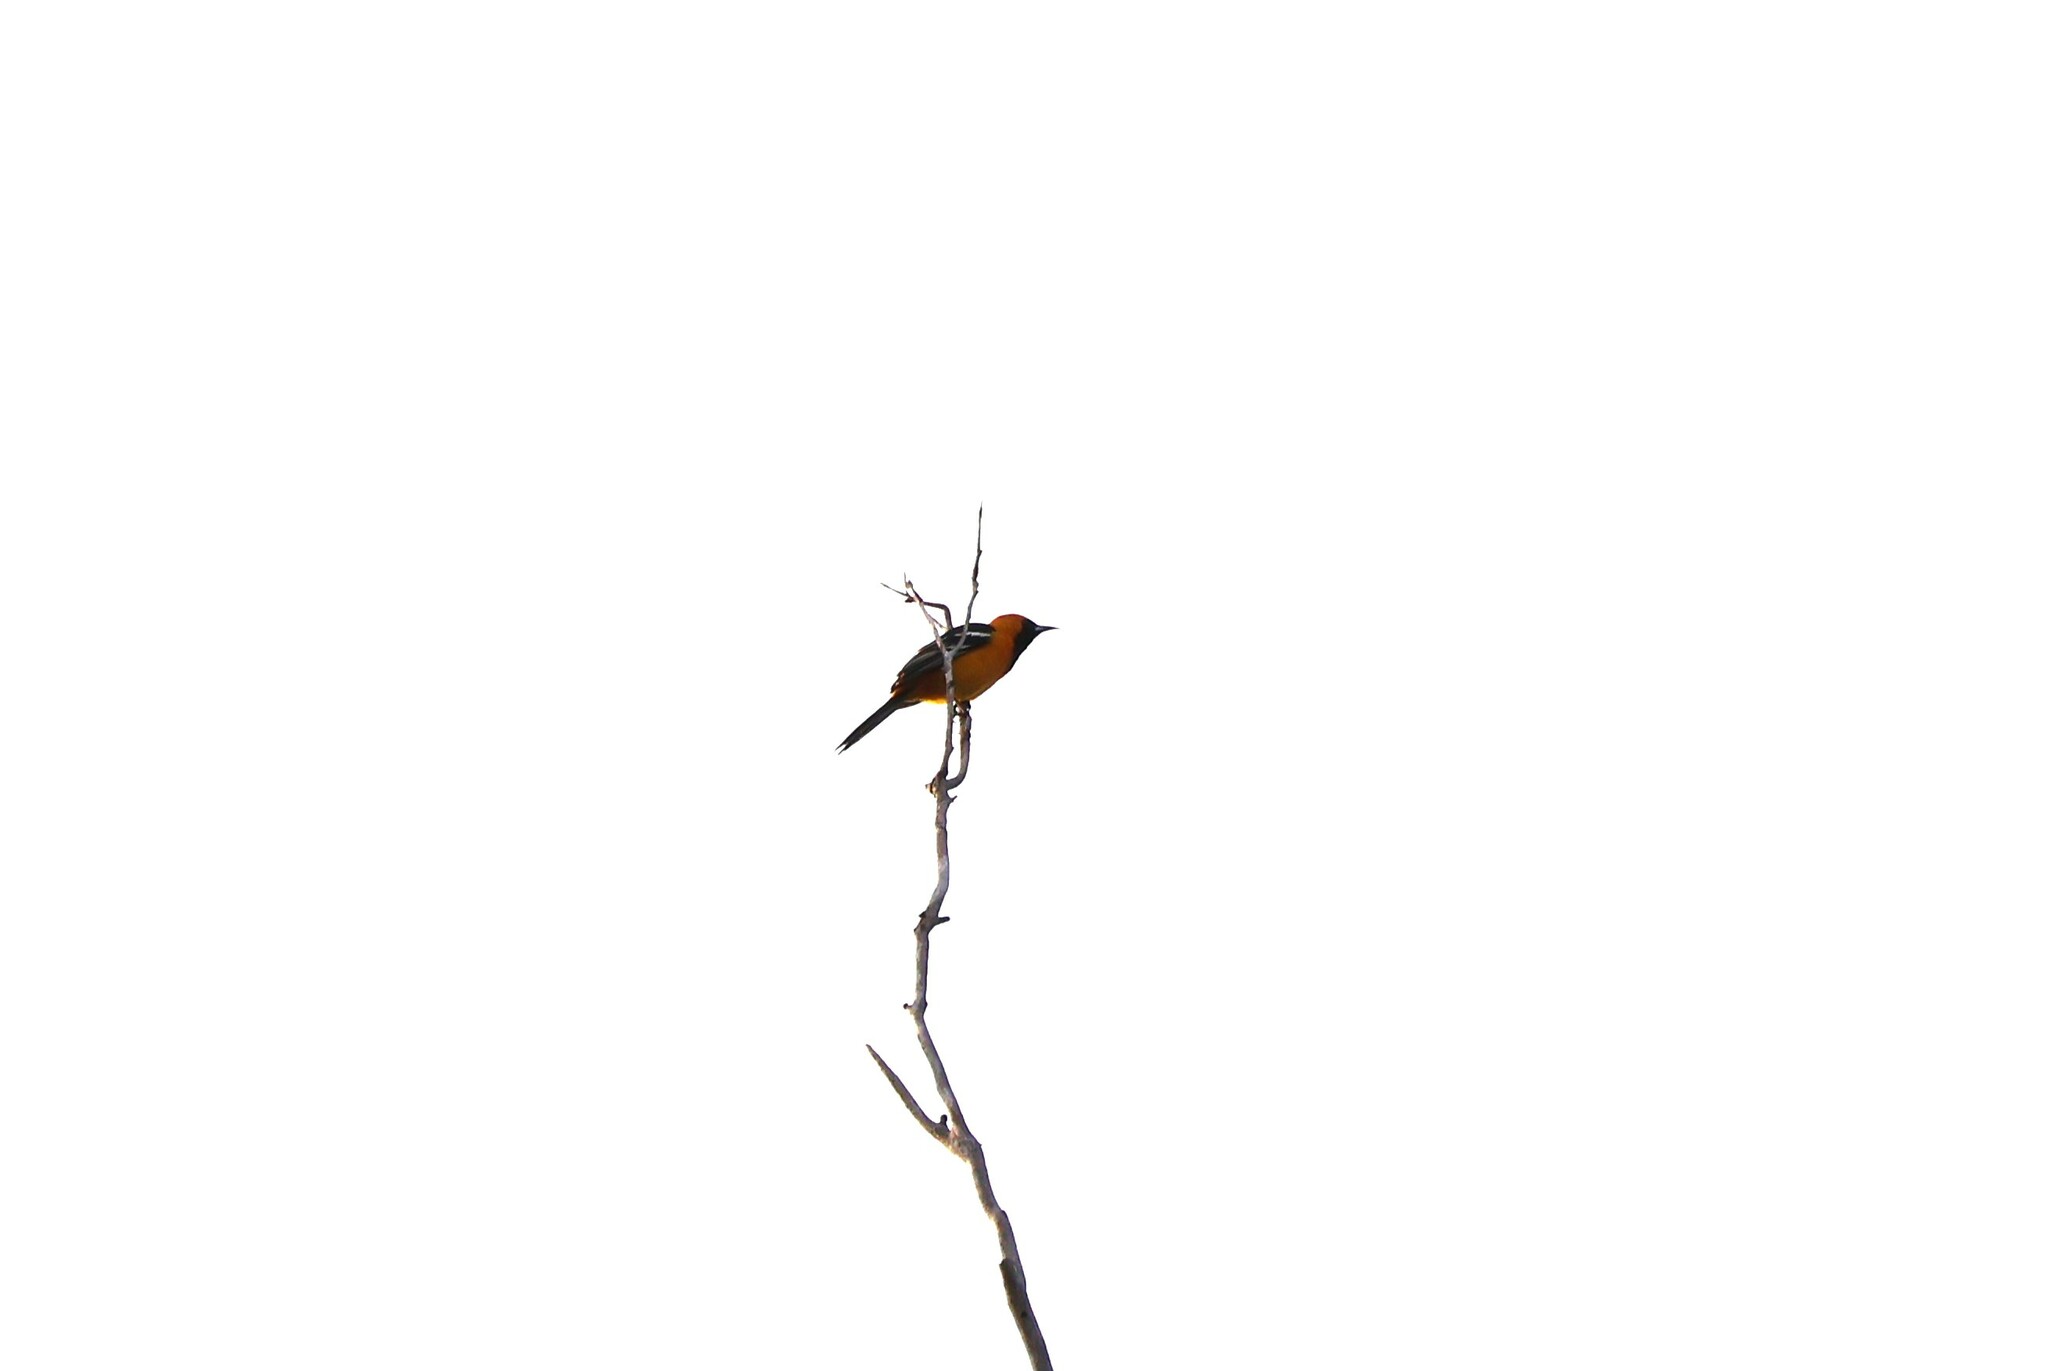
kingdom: Animalia
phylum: Chordata
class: Aves
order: Passeriformes
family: Icteridae
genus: Icterus
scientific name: Icterus cucullatus
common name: Hooded oriole
